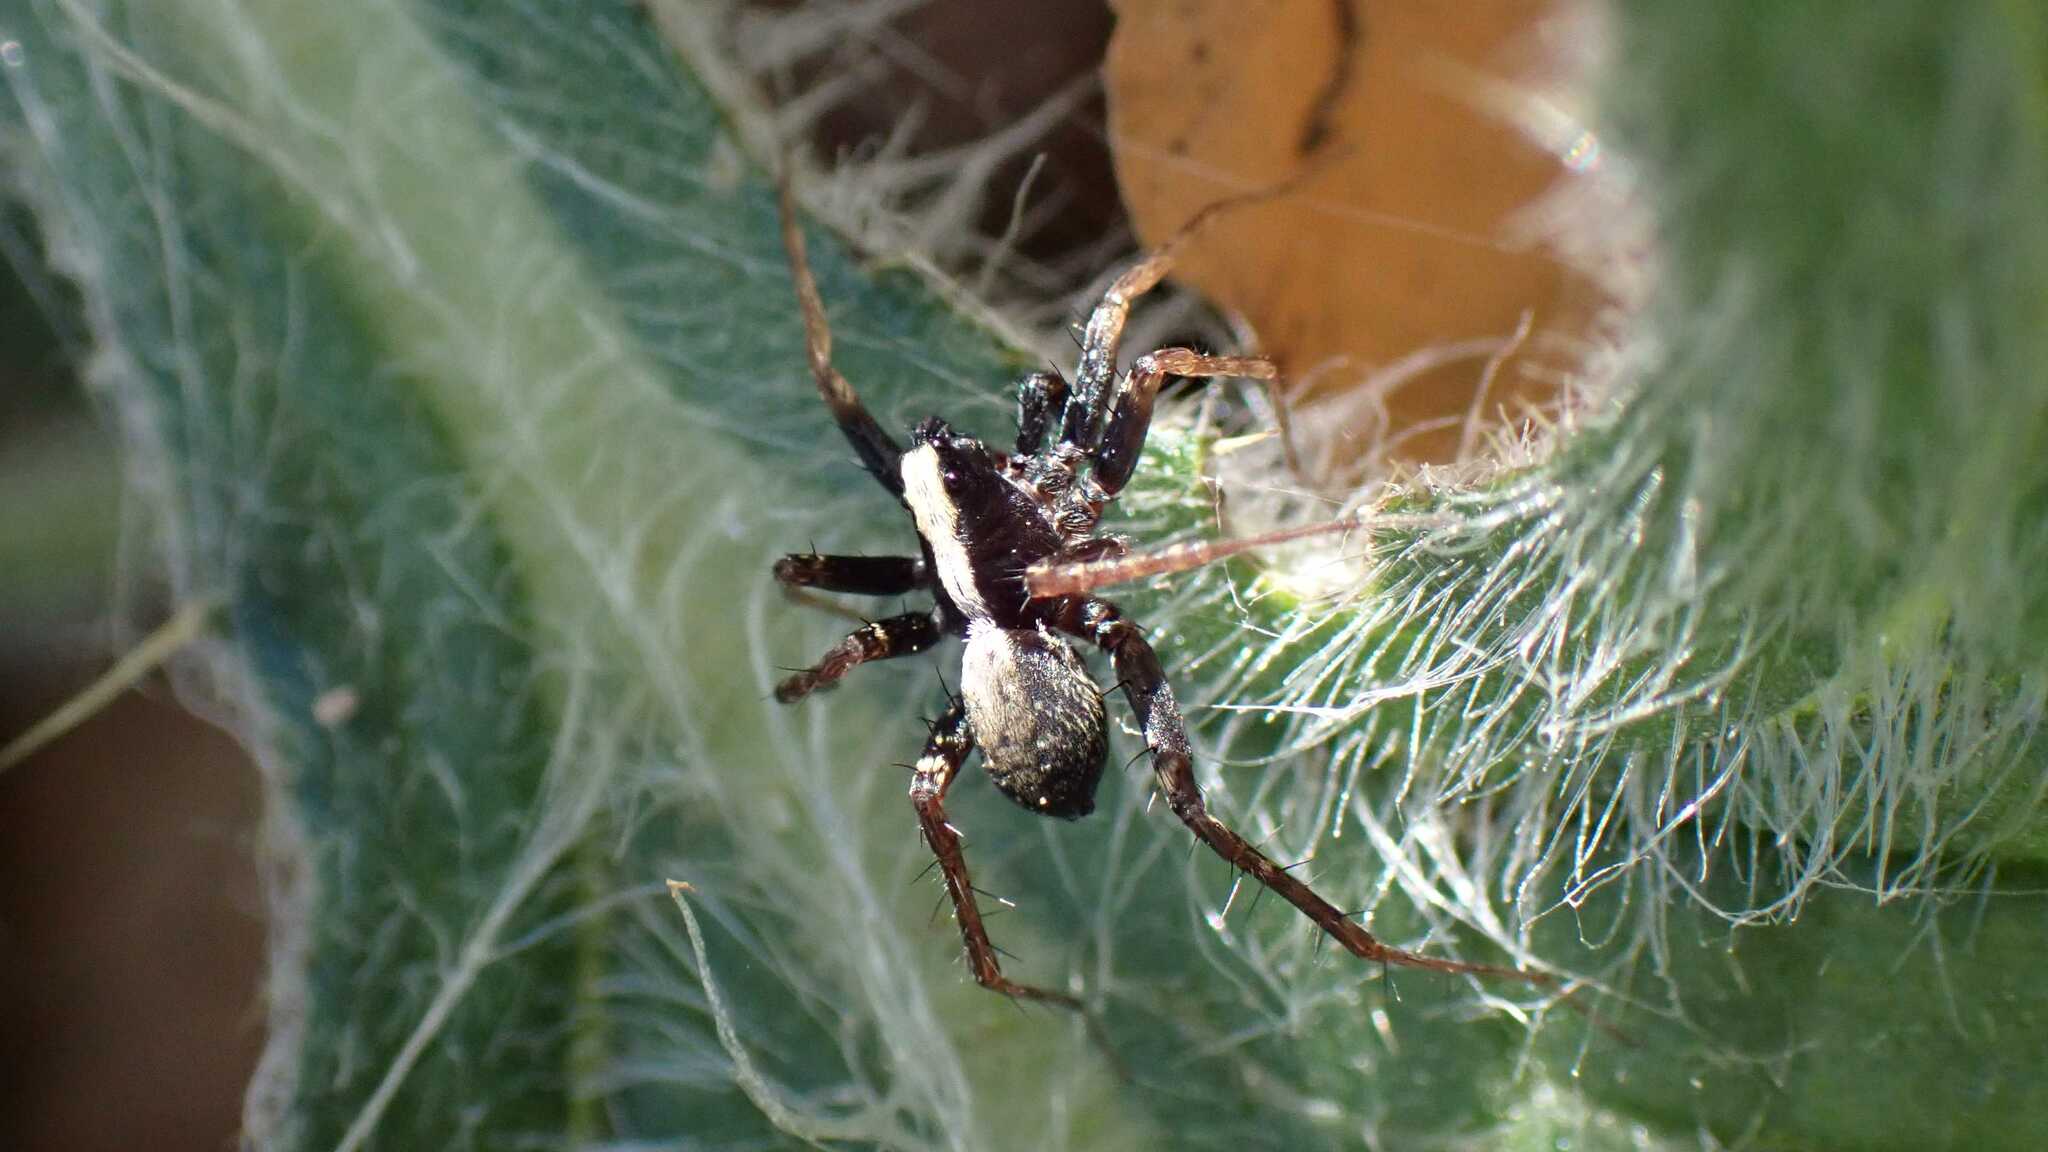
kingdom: Animalia
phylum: Arthropoda
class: Arachnida
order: Araneae
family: Lycosidae
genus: Pardosa
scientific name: Pardosa
